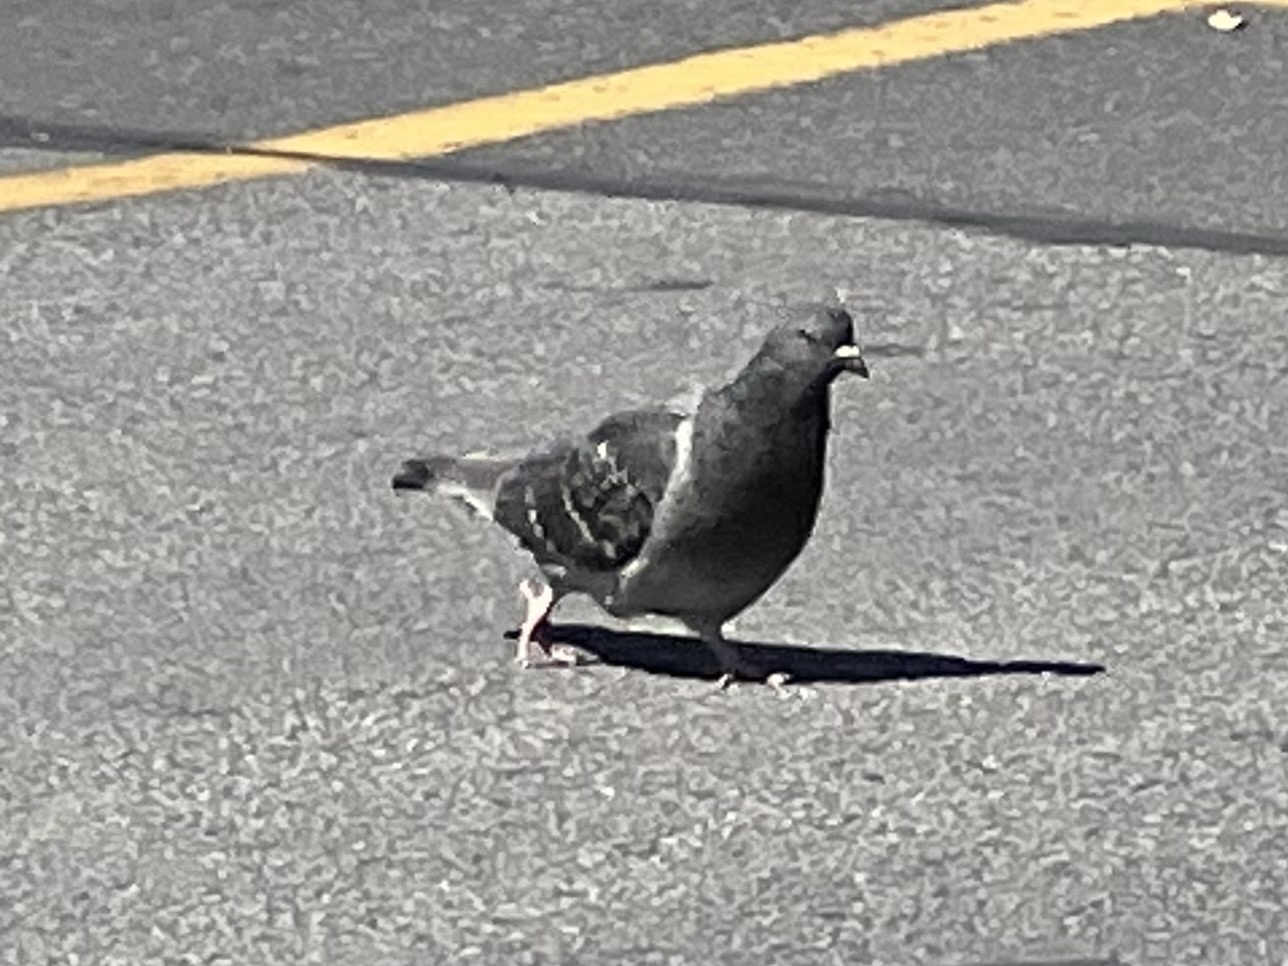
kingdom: Animalia
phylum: Chordata
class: Aves
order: Columbiformes
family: Columbidae
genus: Columba
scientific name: Columba livia
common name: Rock pigeon
